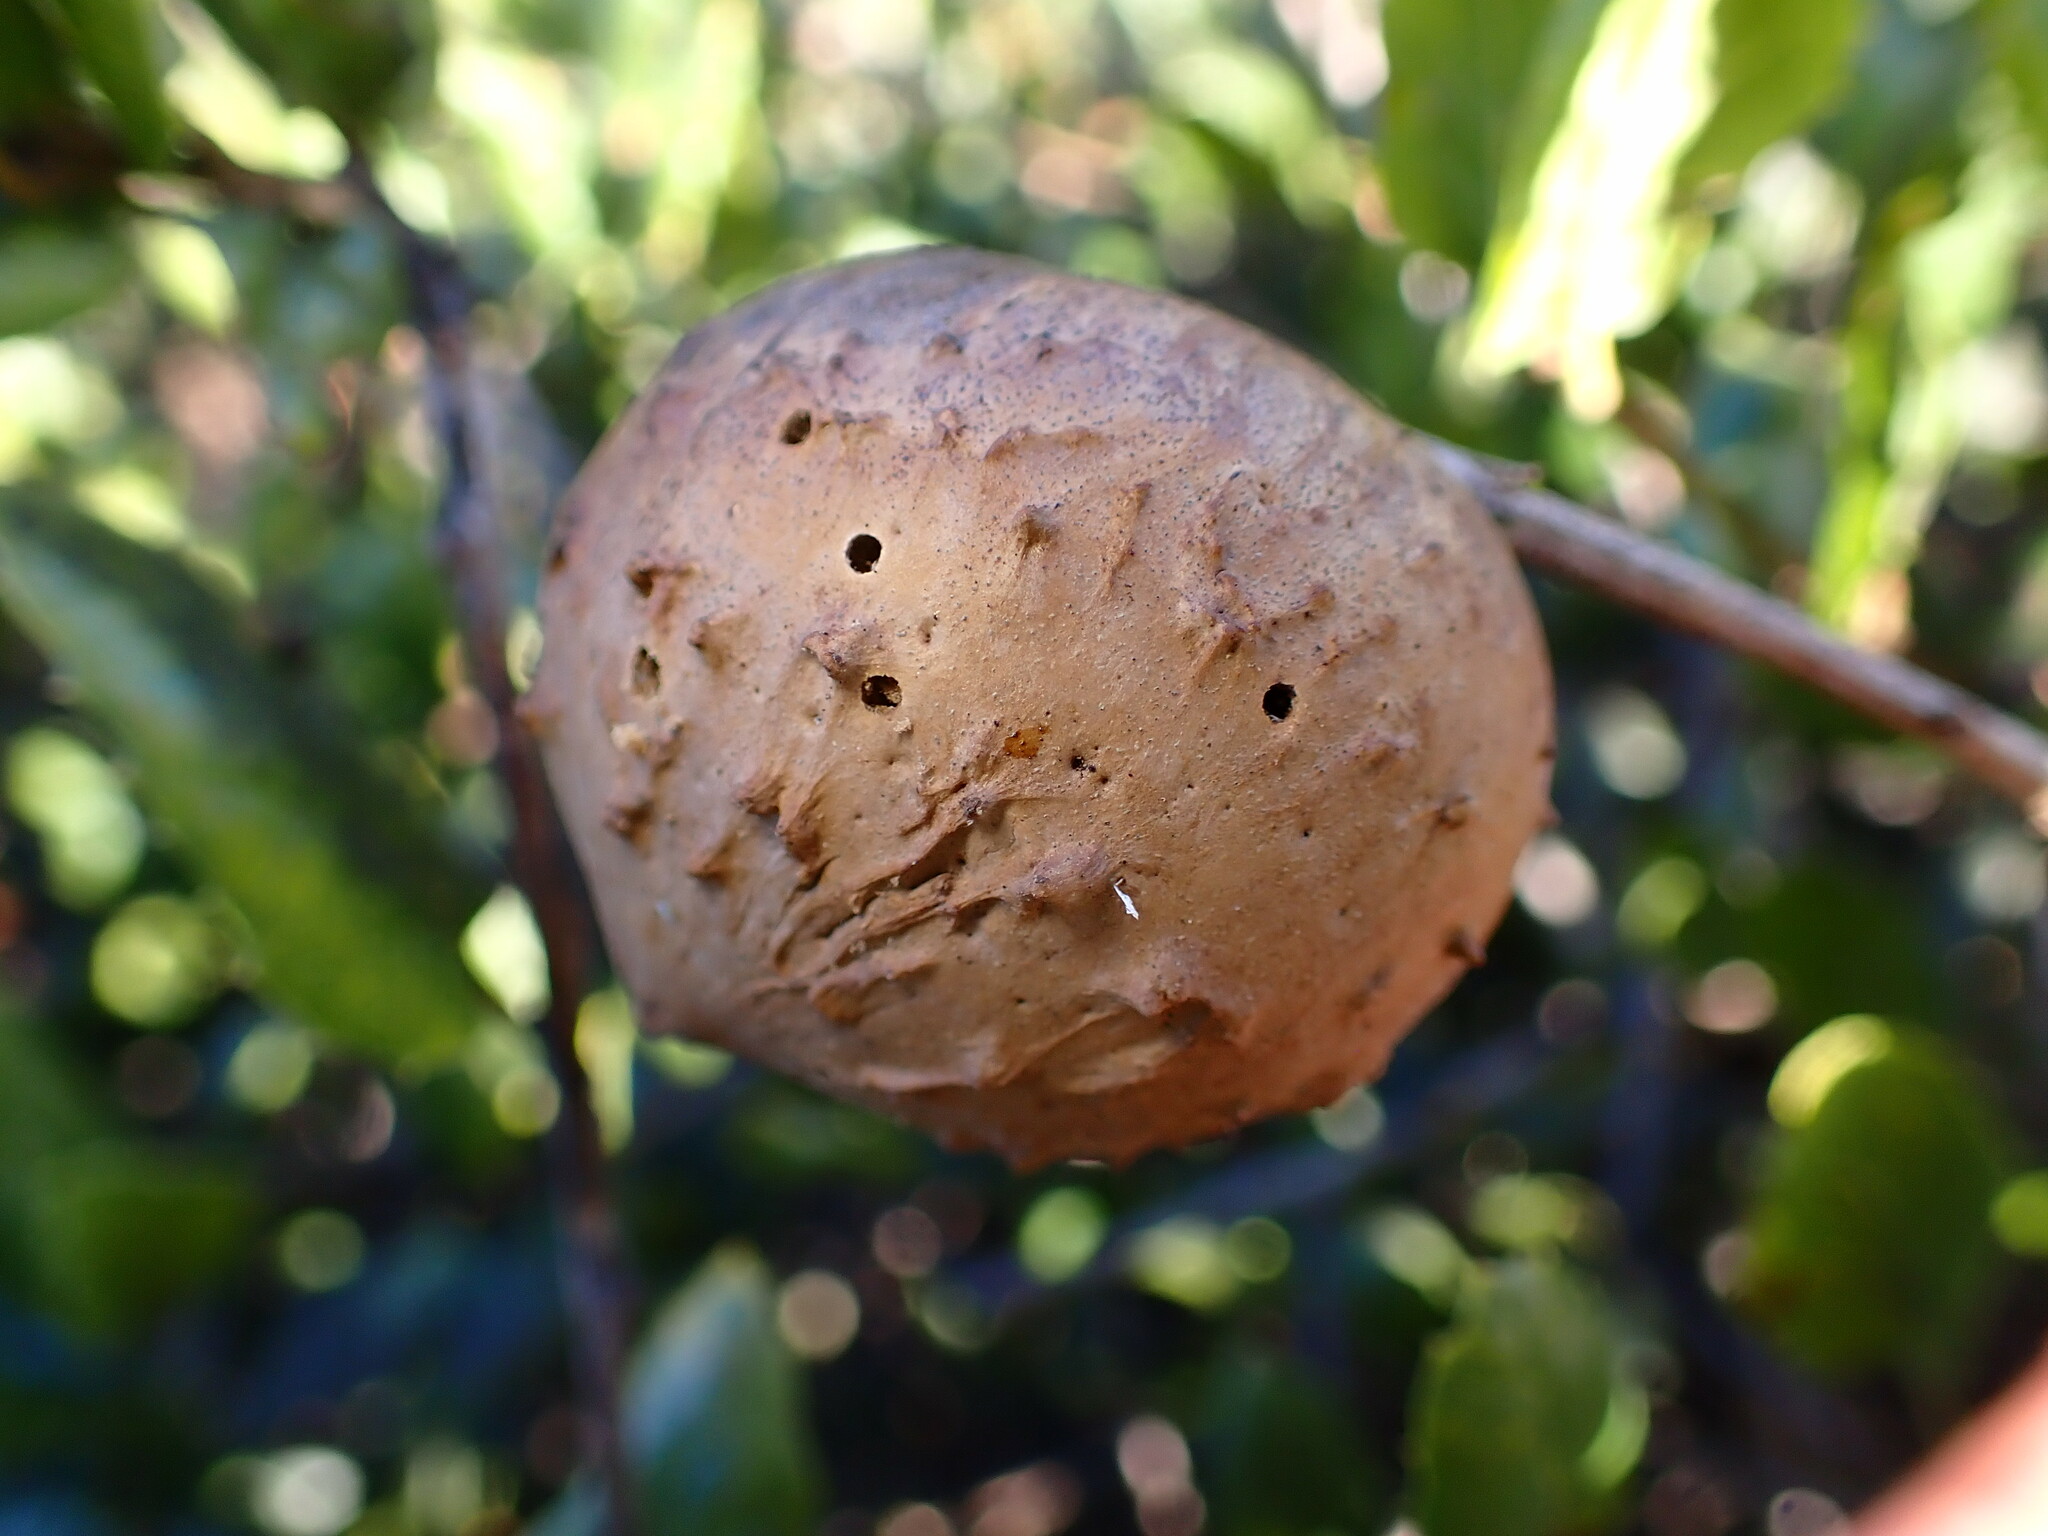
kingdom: Animalia
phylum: Arthropoda
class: Insecta
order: Hymenoptera
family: Cynipidae
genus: Amphibolips
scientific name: Amphibolips quercuspomiformis
